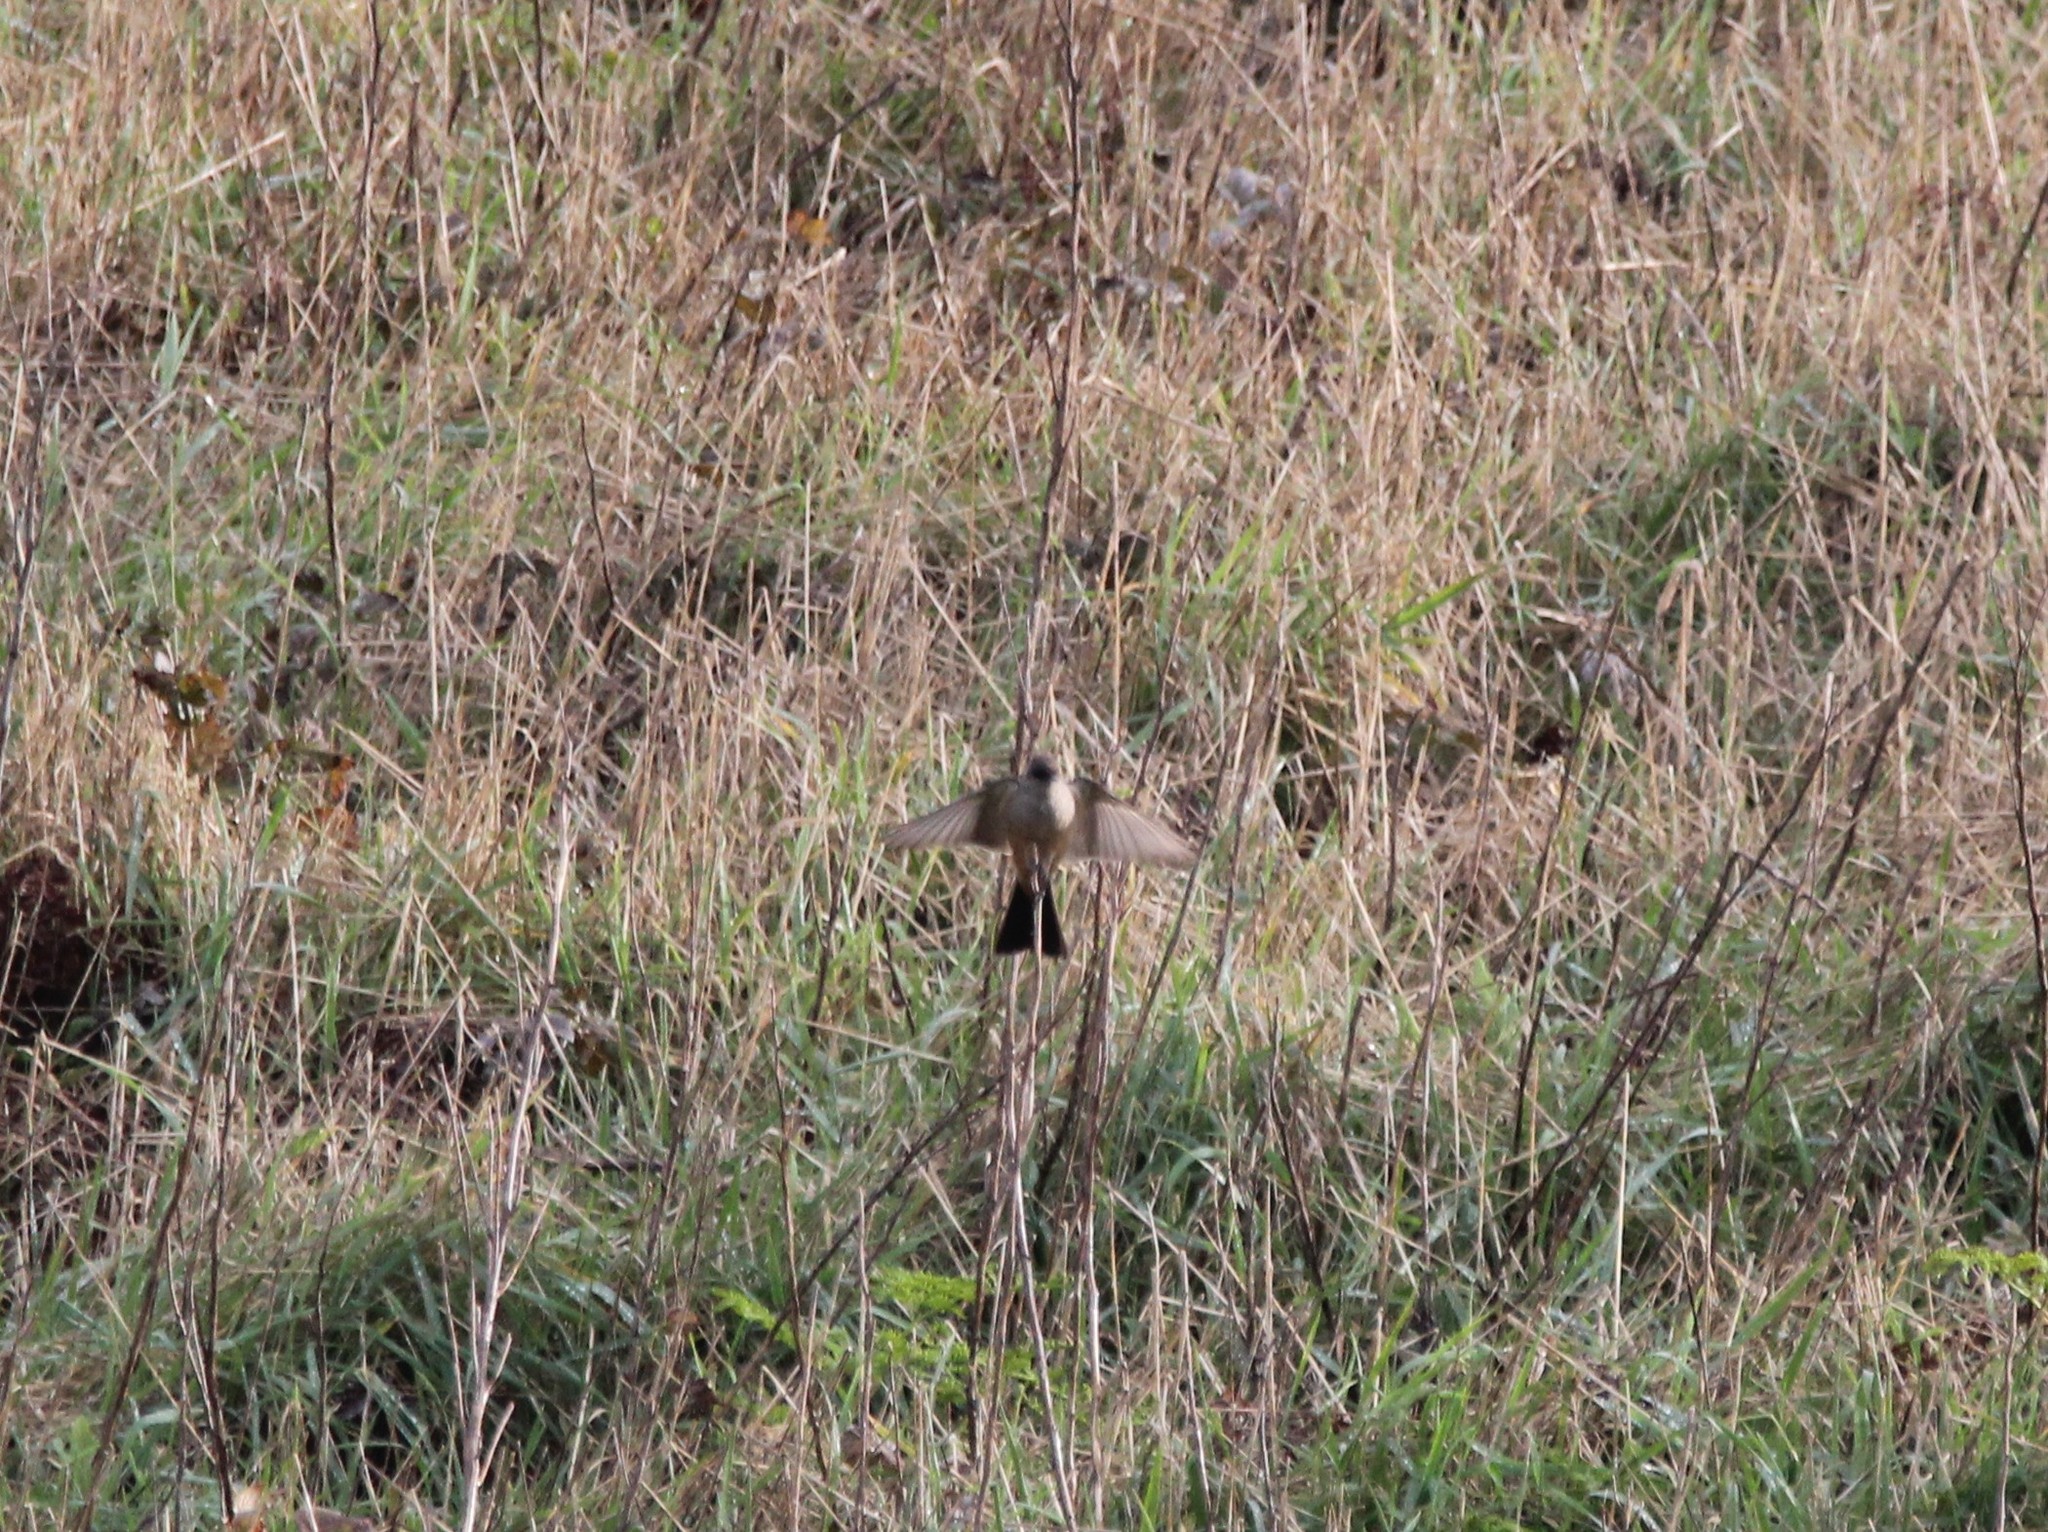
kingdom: Animalia
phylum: Chordata
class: Aves
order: Passeriformes
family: Tyrannidae
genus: Sayornis
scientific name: Sayornis saya
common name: Say's phoebe
